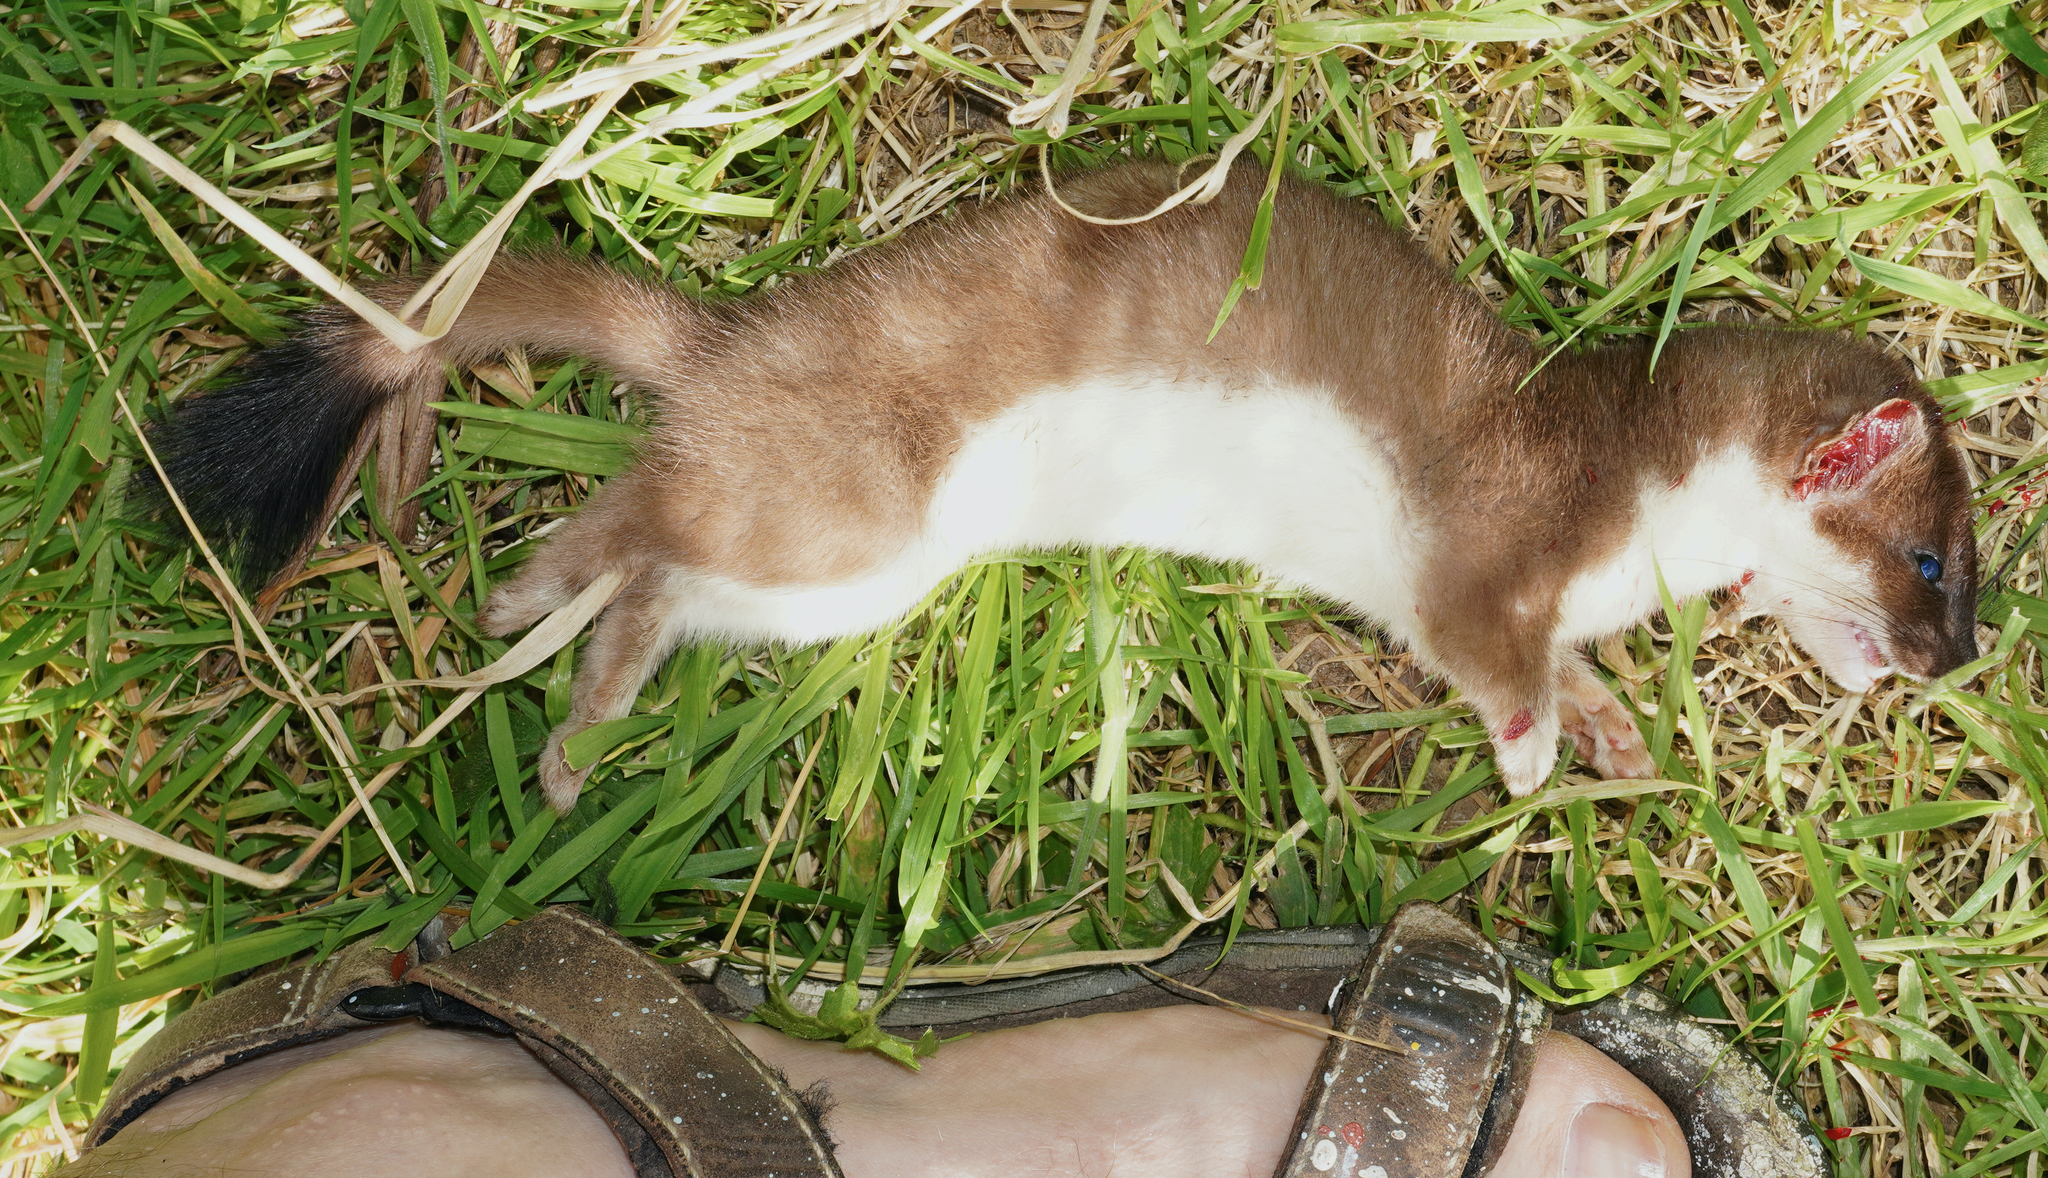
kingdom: Animalia
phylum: Chordata
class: Mammalia
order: Carnivora
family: Mustelidae
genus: Mustela
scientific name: Mustela erminea
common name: Stoat
